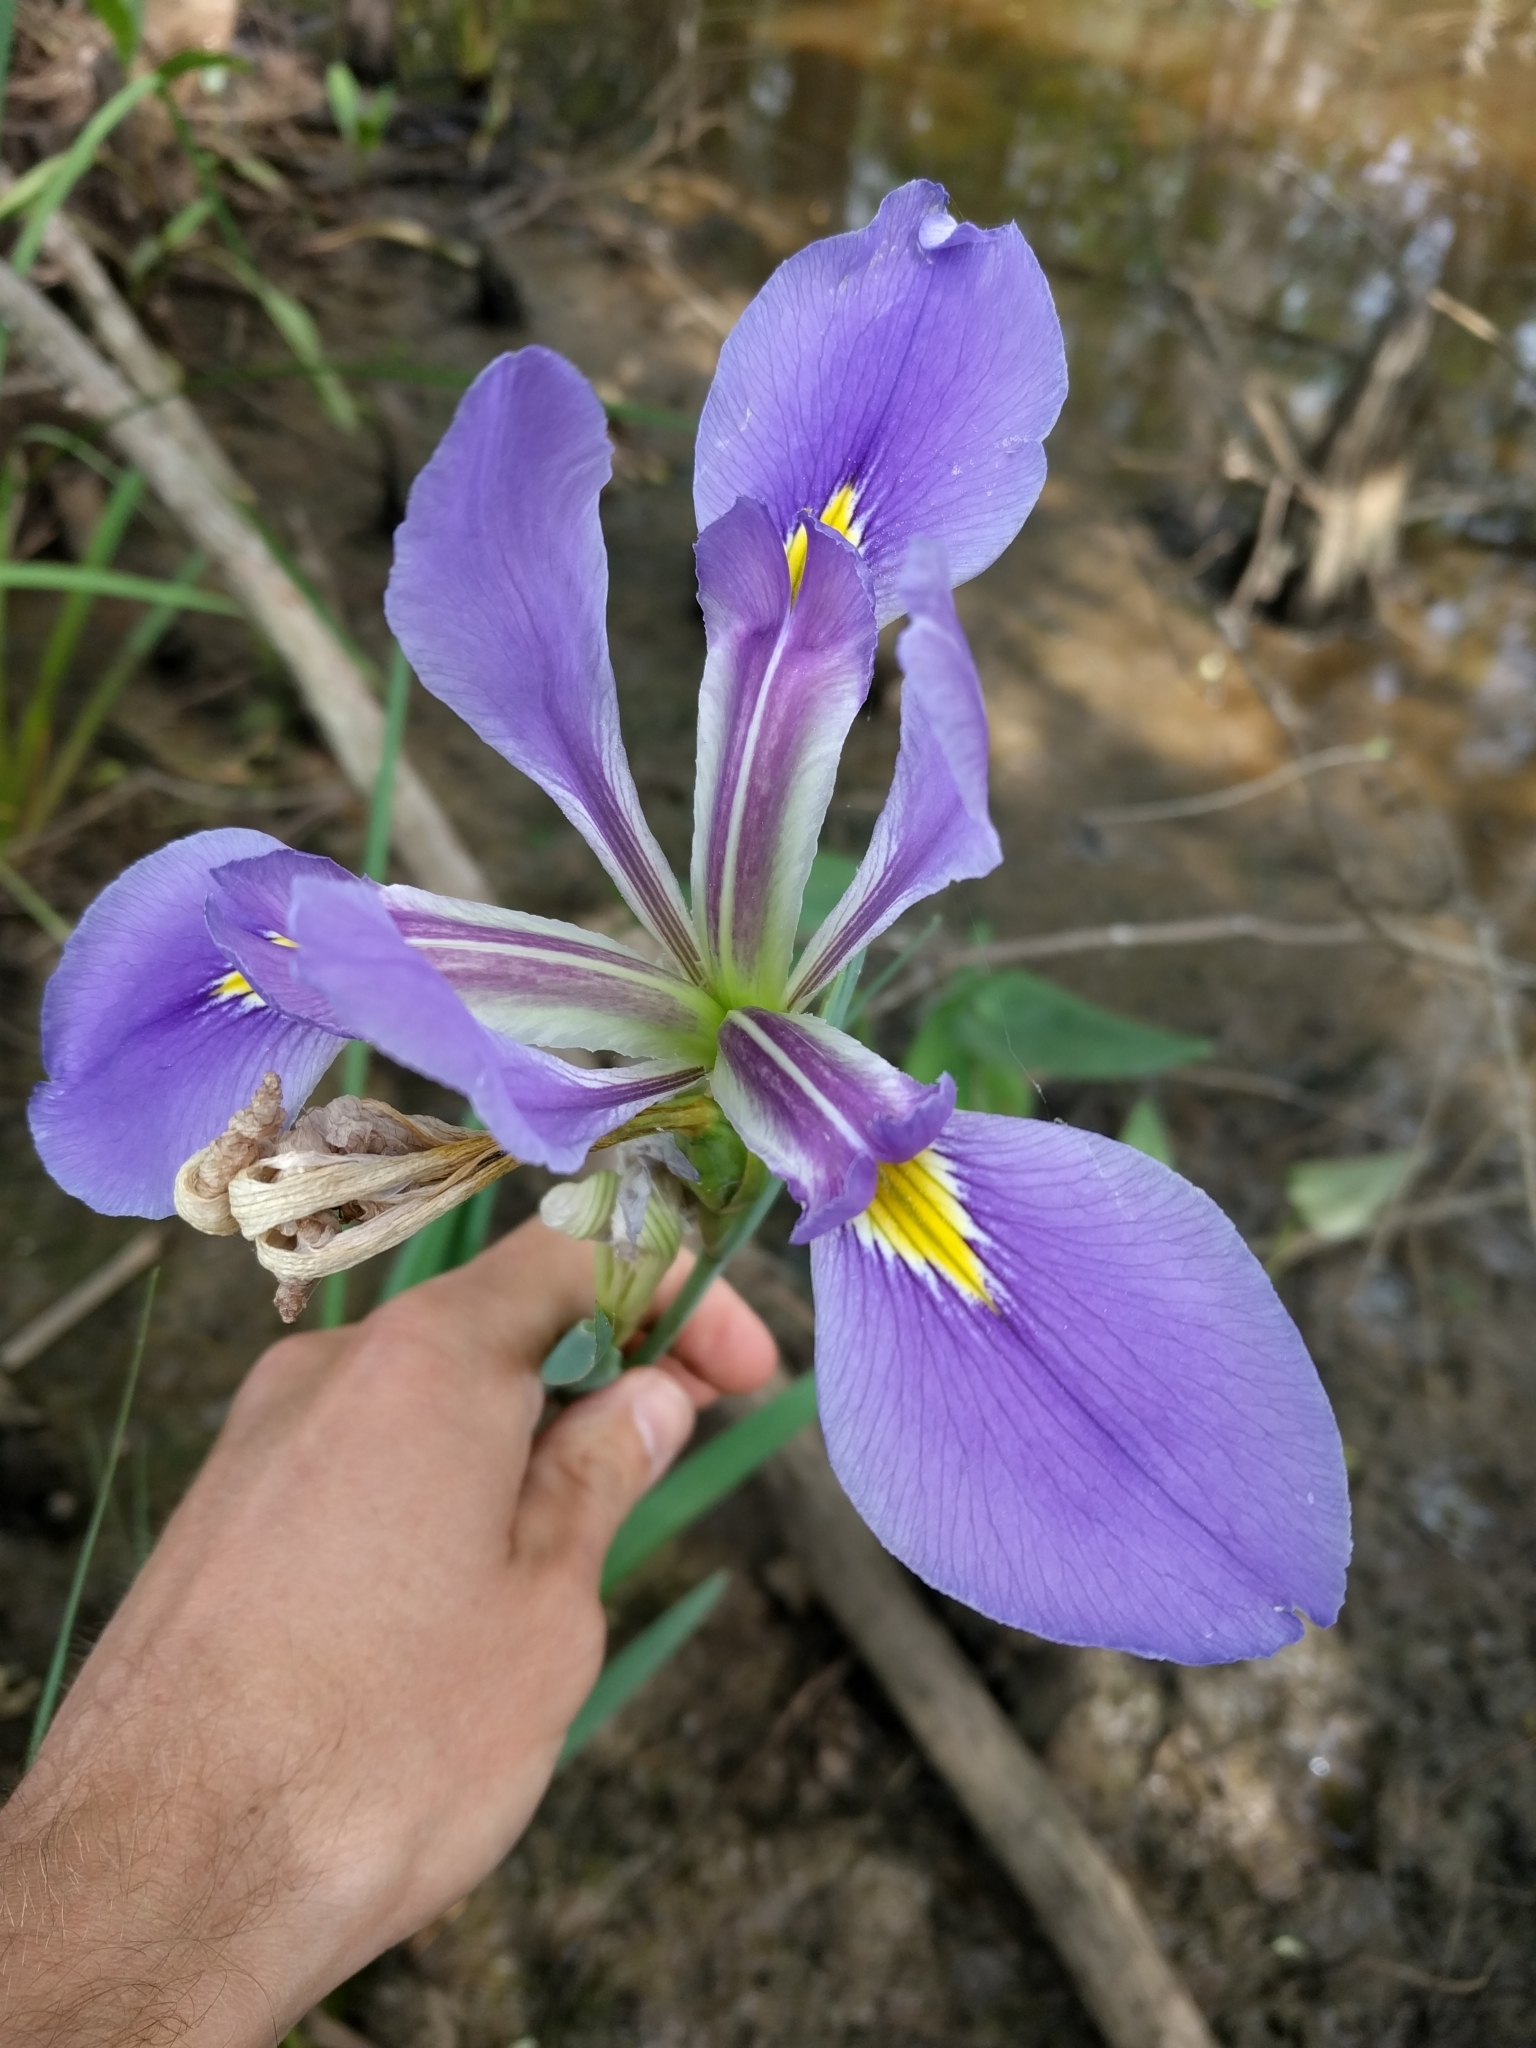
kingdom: Plantae
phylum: Tracheophyta
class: Liliopsida
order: Asparagales
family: Iridaceae
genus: Iris
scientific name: Iris giganticaerulea
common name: Giant blue iris
